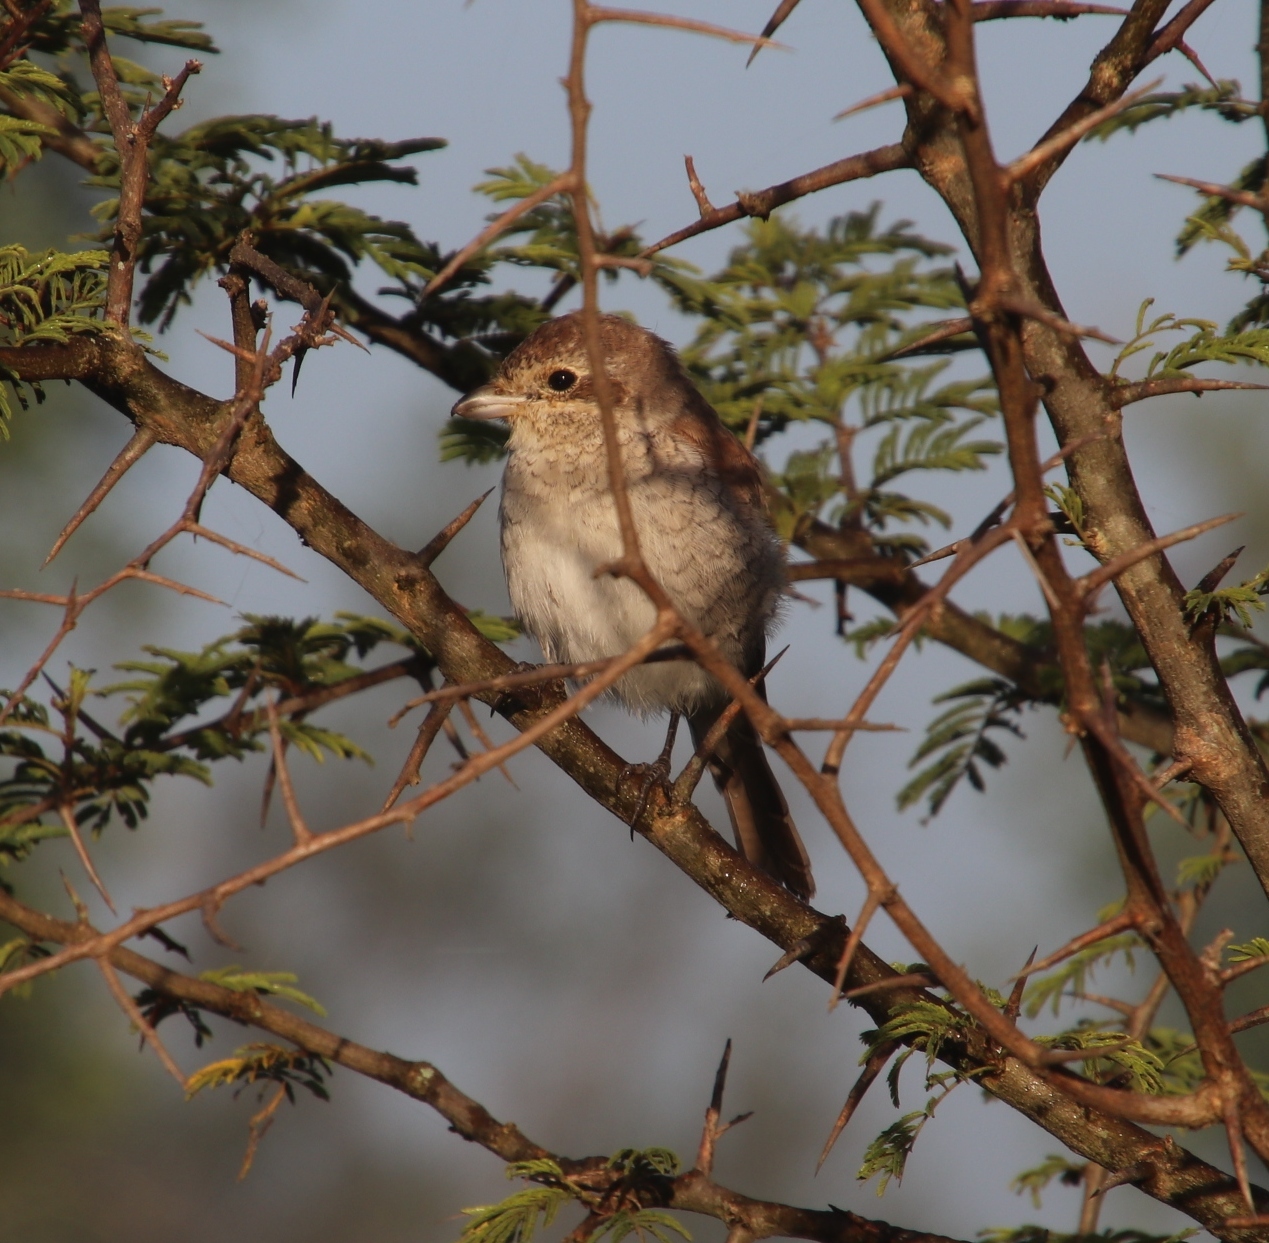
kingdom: Animalia
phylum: Chordata
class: Aves
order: Passeriformes
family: Laniidae
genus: Lanius
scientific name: Lanius collurio
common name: Red-backed shrike
